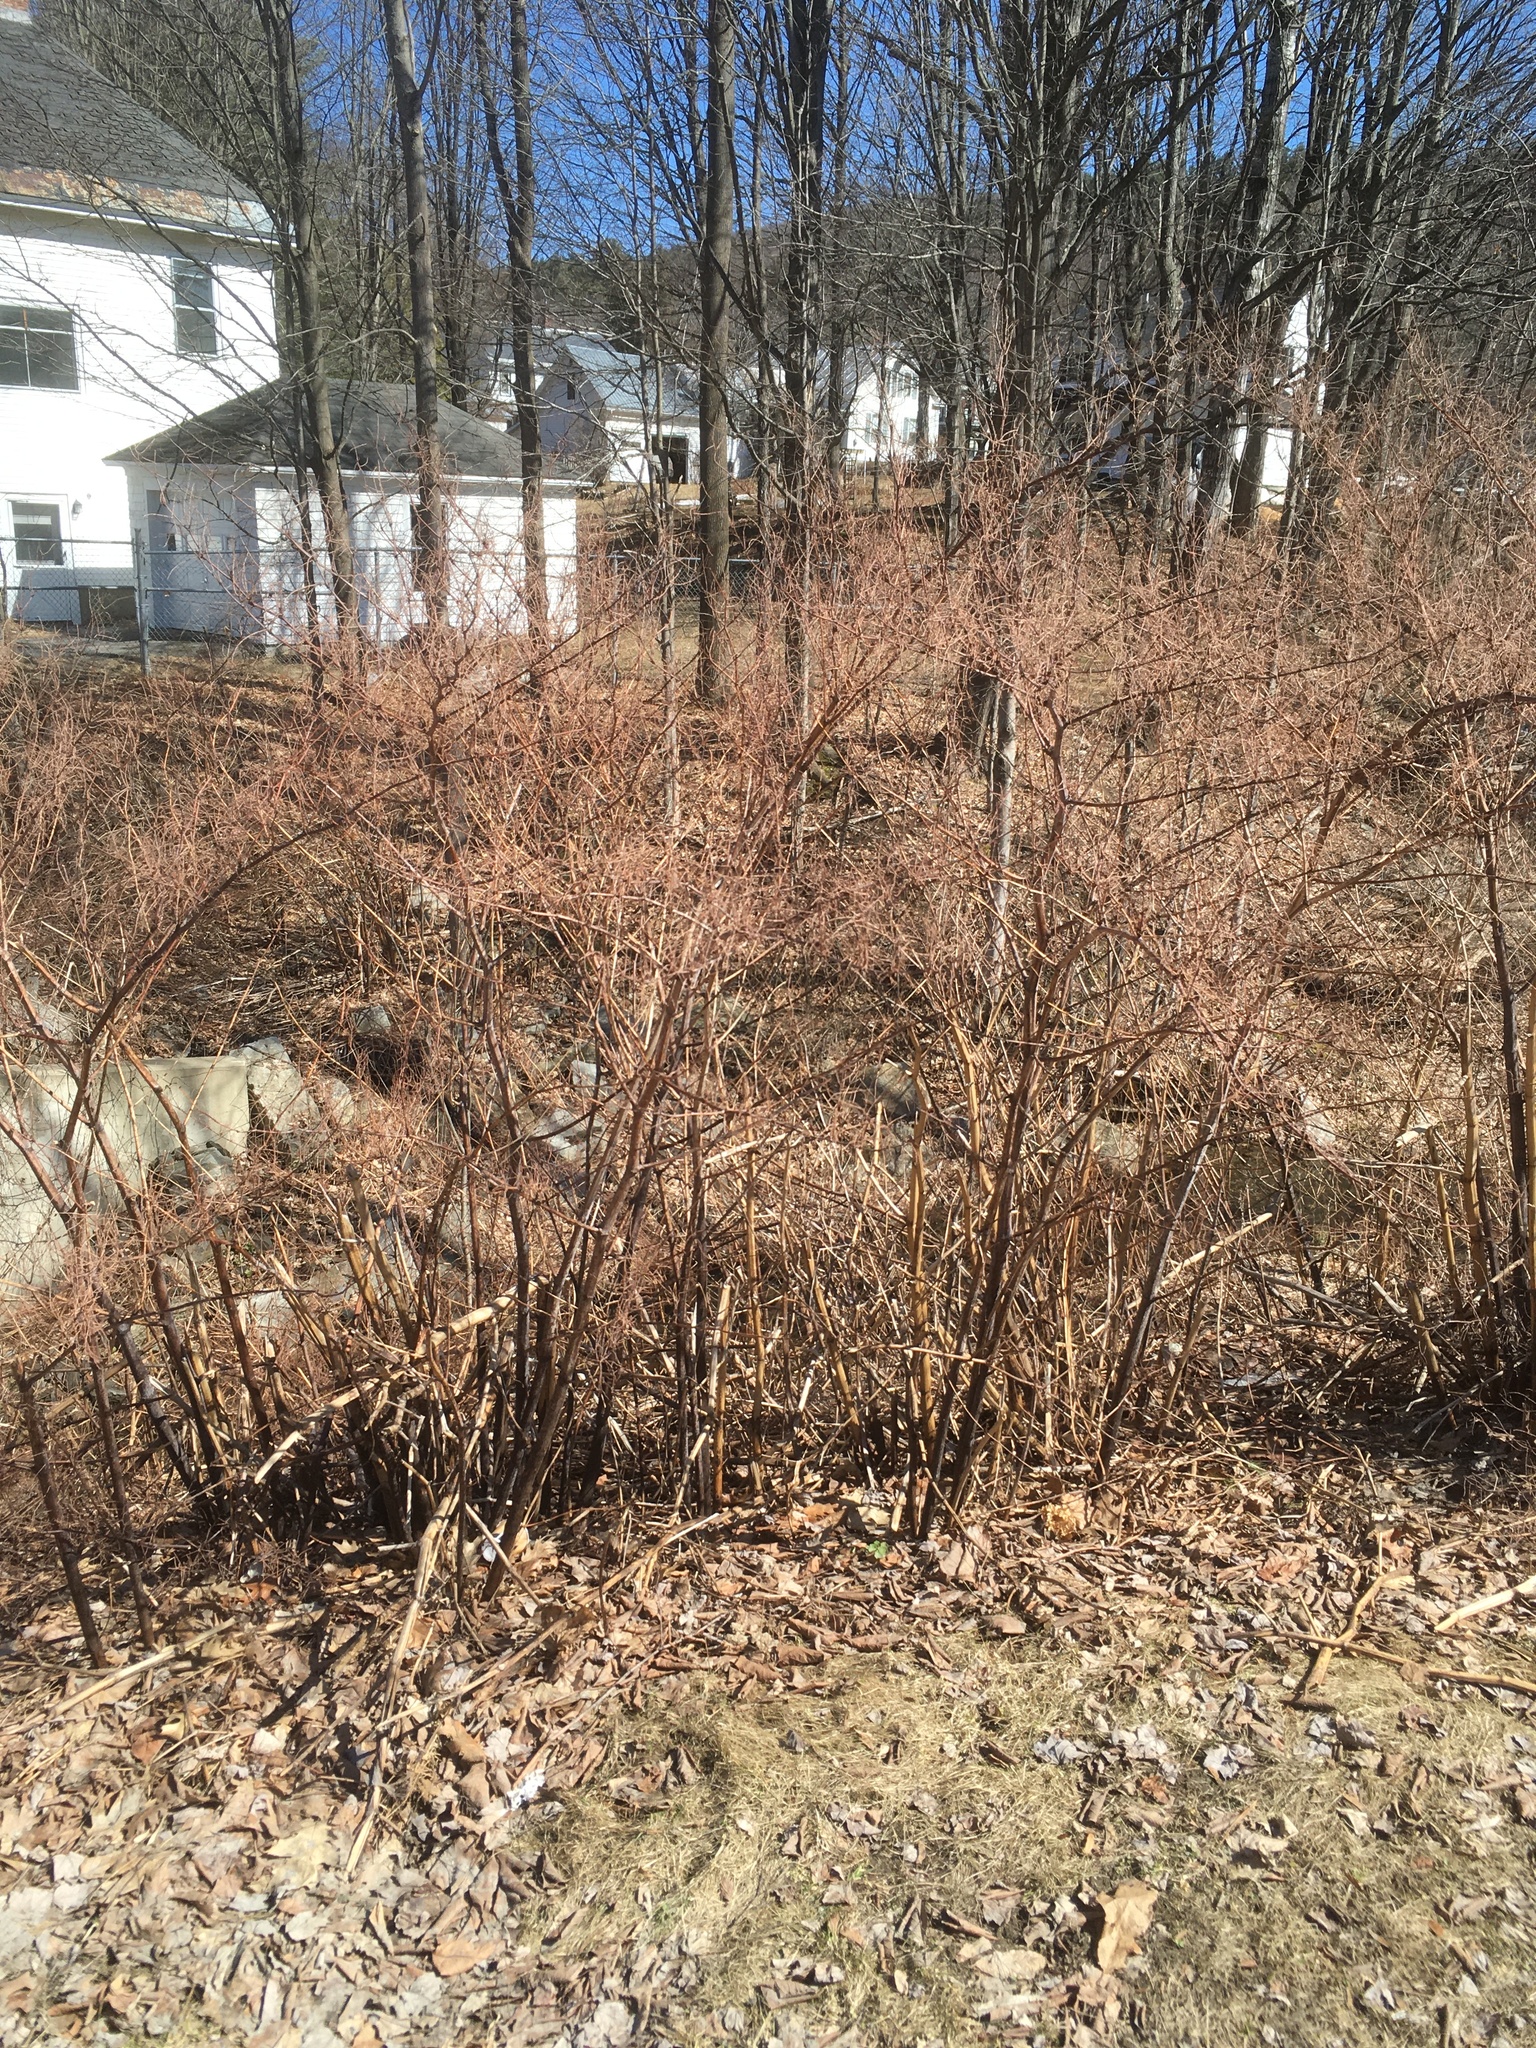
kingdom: Plantae
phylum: Tracheophyta
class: Magnoliopsida
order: Caryophyllales
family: Polygonaceae
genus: Reynoutria
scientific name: Reynoutria japonica
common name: Japanese knotweed
